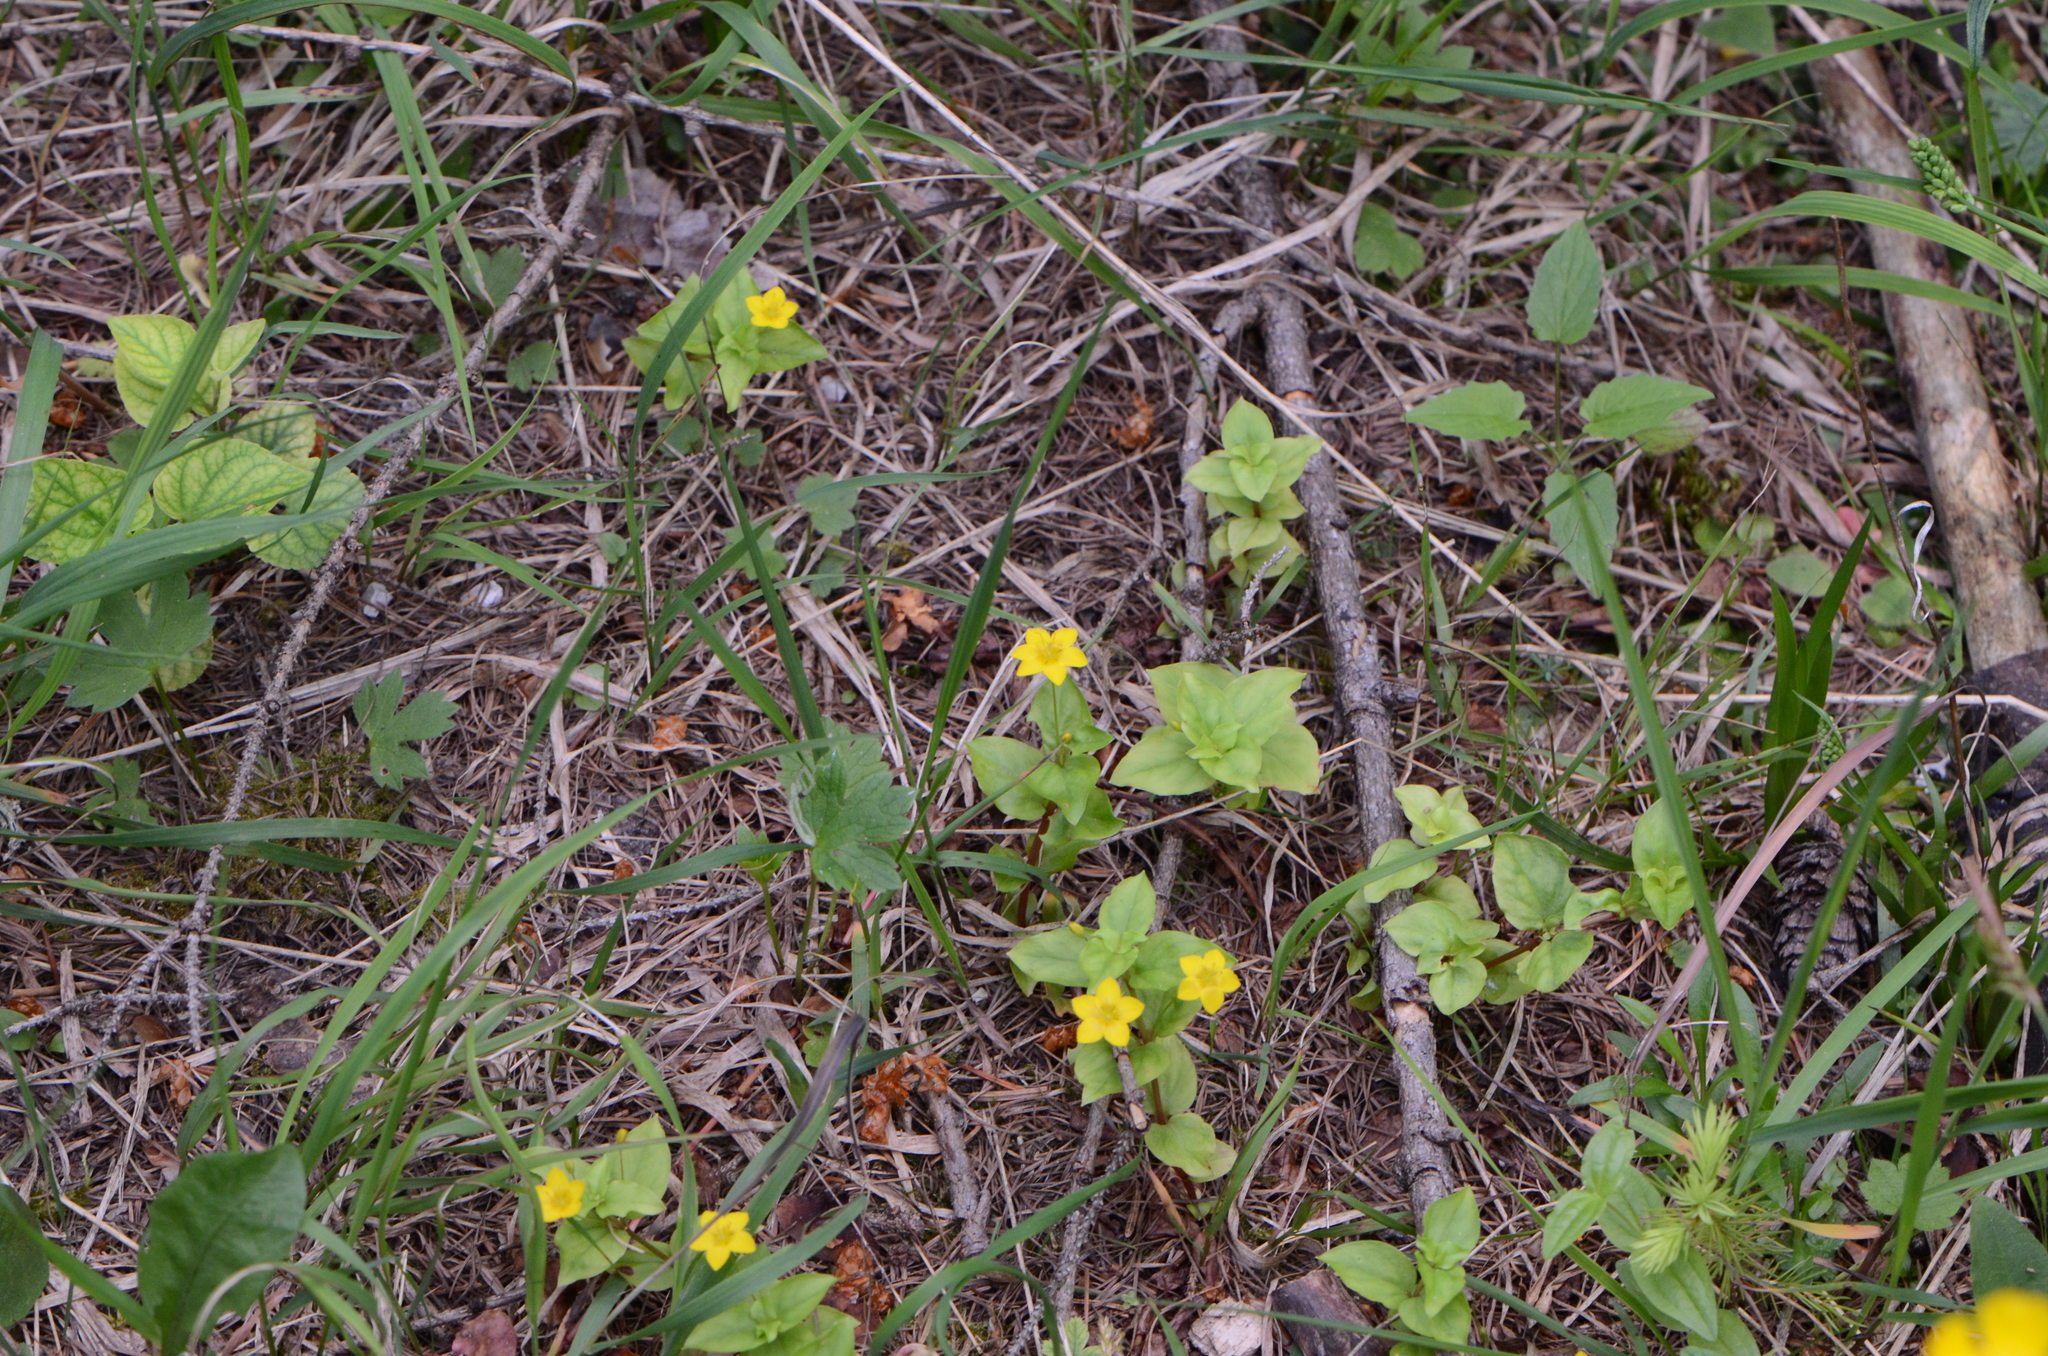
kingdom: Plantae
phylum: Tracheophyta
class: Magnoliopsida
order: Ericales
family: Primulaceae
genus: Lysimachia
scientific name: Lysimachia nemorum
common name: Yellow pimpernel
